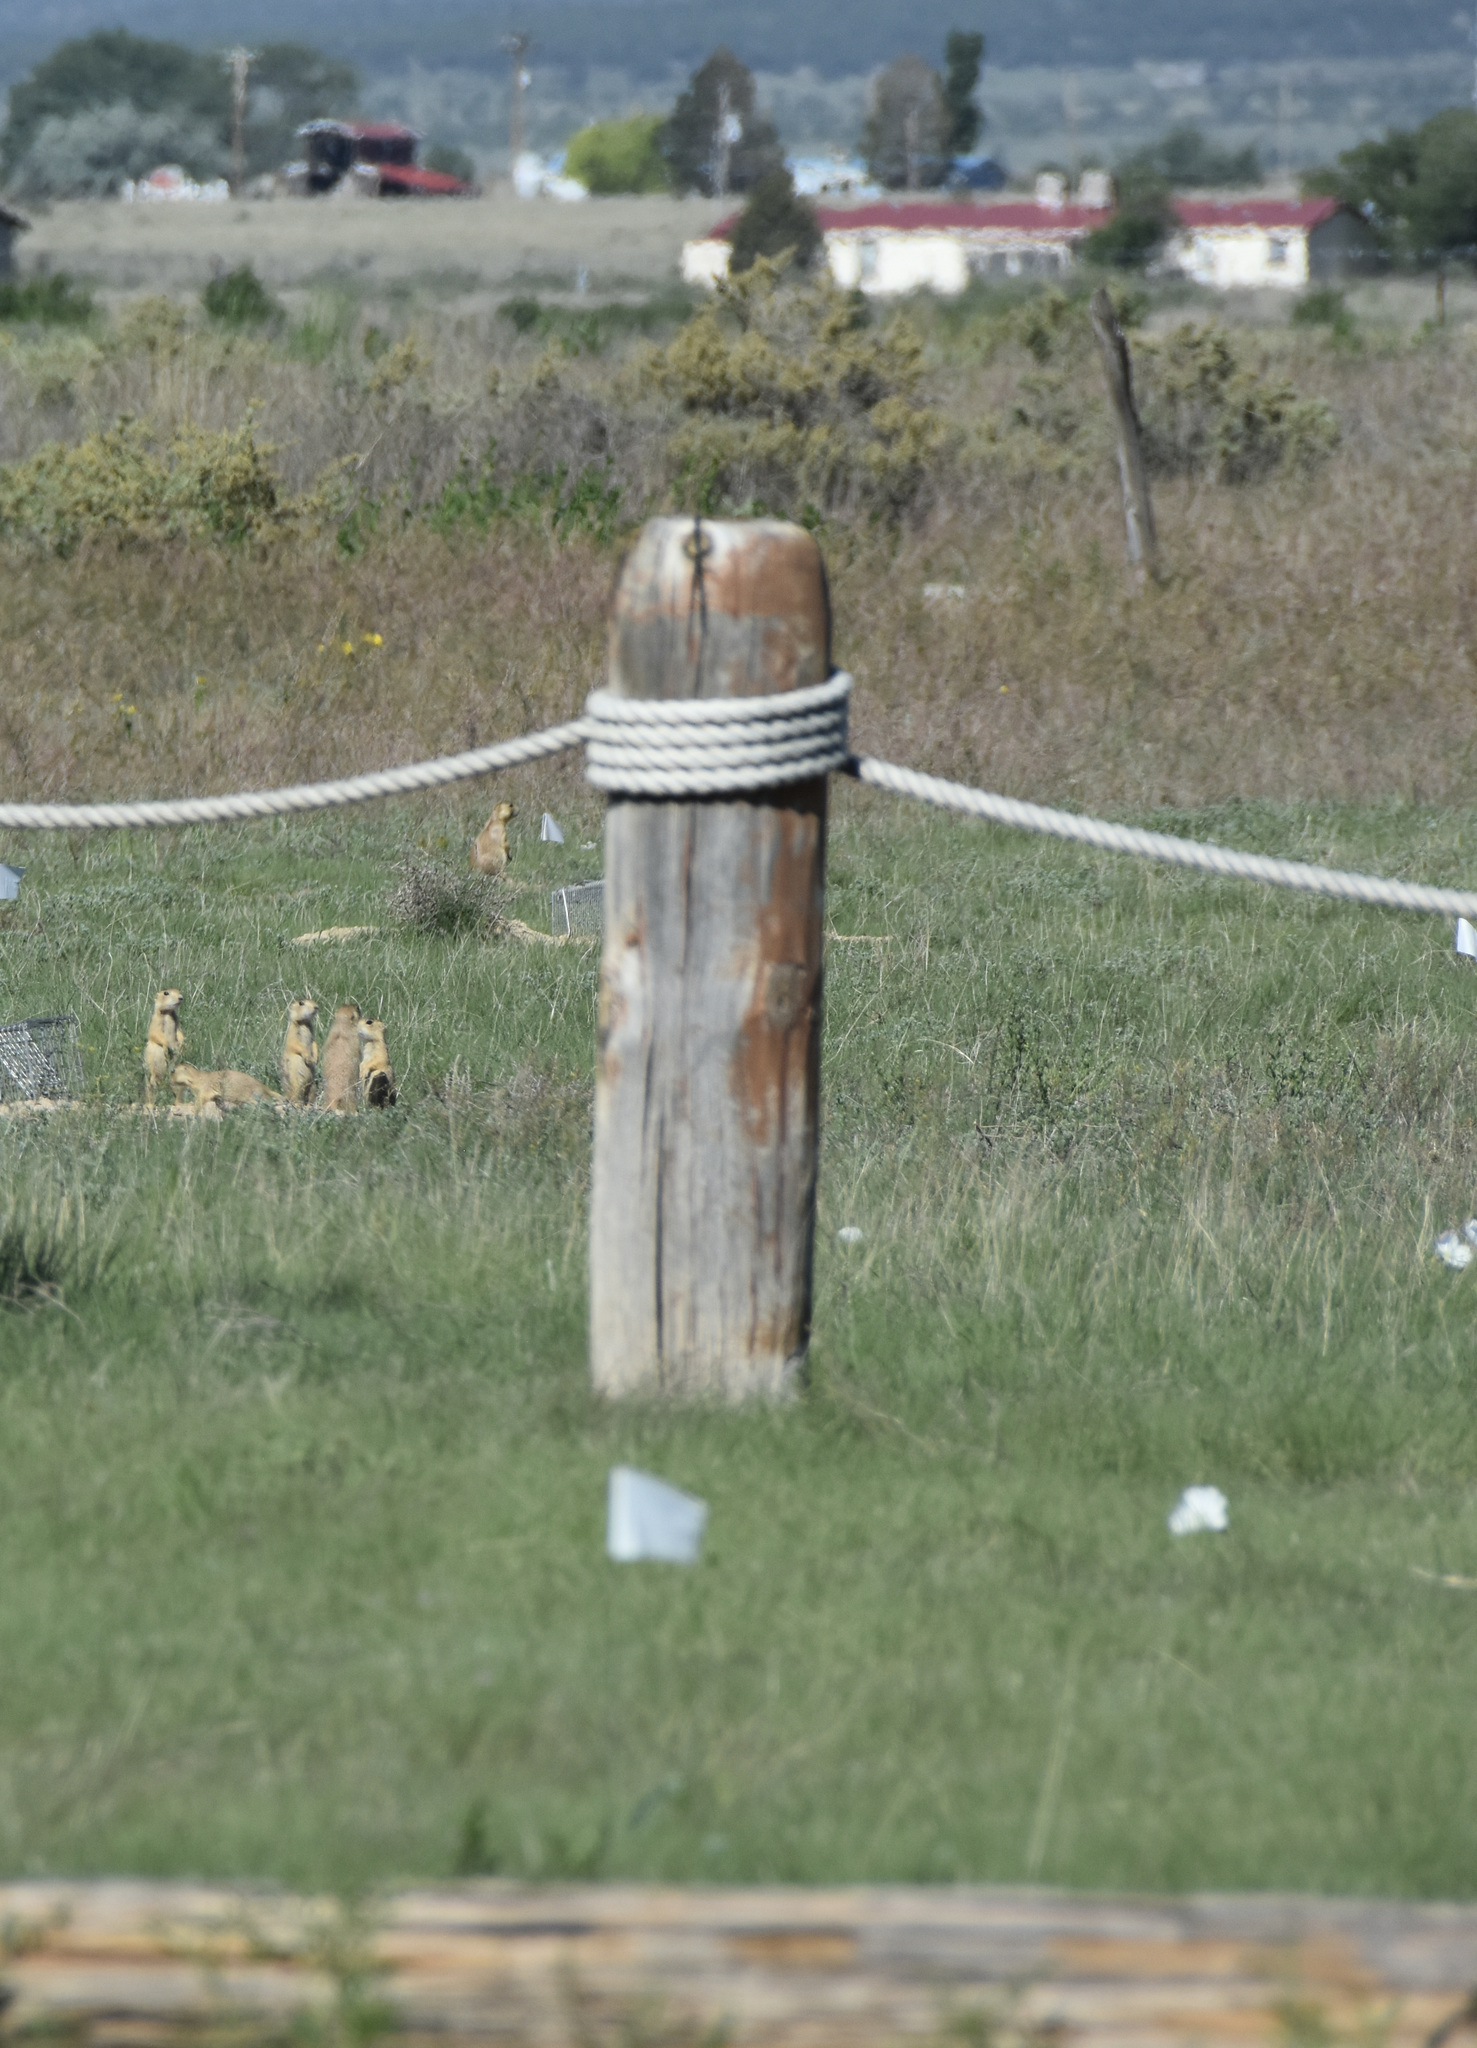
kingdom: Animalia
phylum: Chordata
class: Mammalia
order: Rodentia
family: Sciuridae
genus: Cynomys
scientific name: Cynomys gunnisoni
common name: Gunnison's prairie dog
